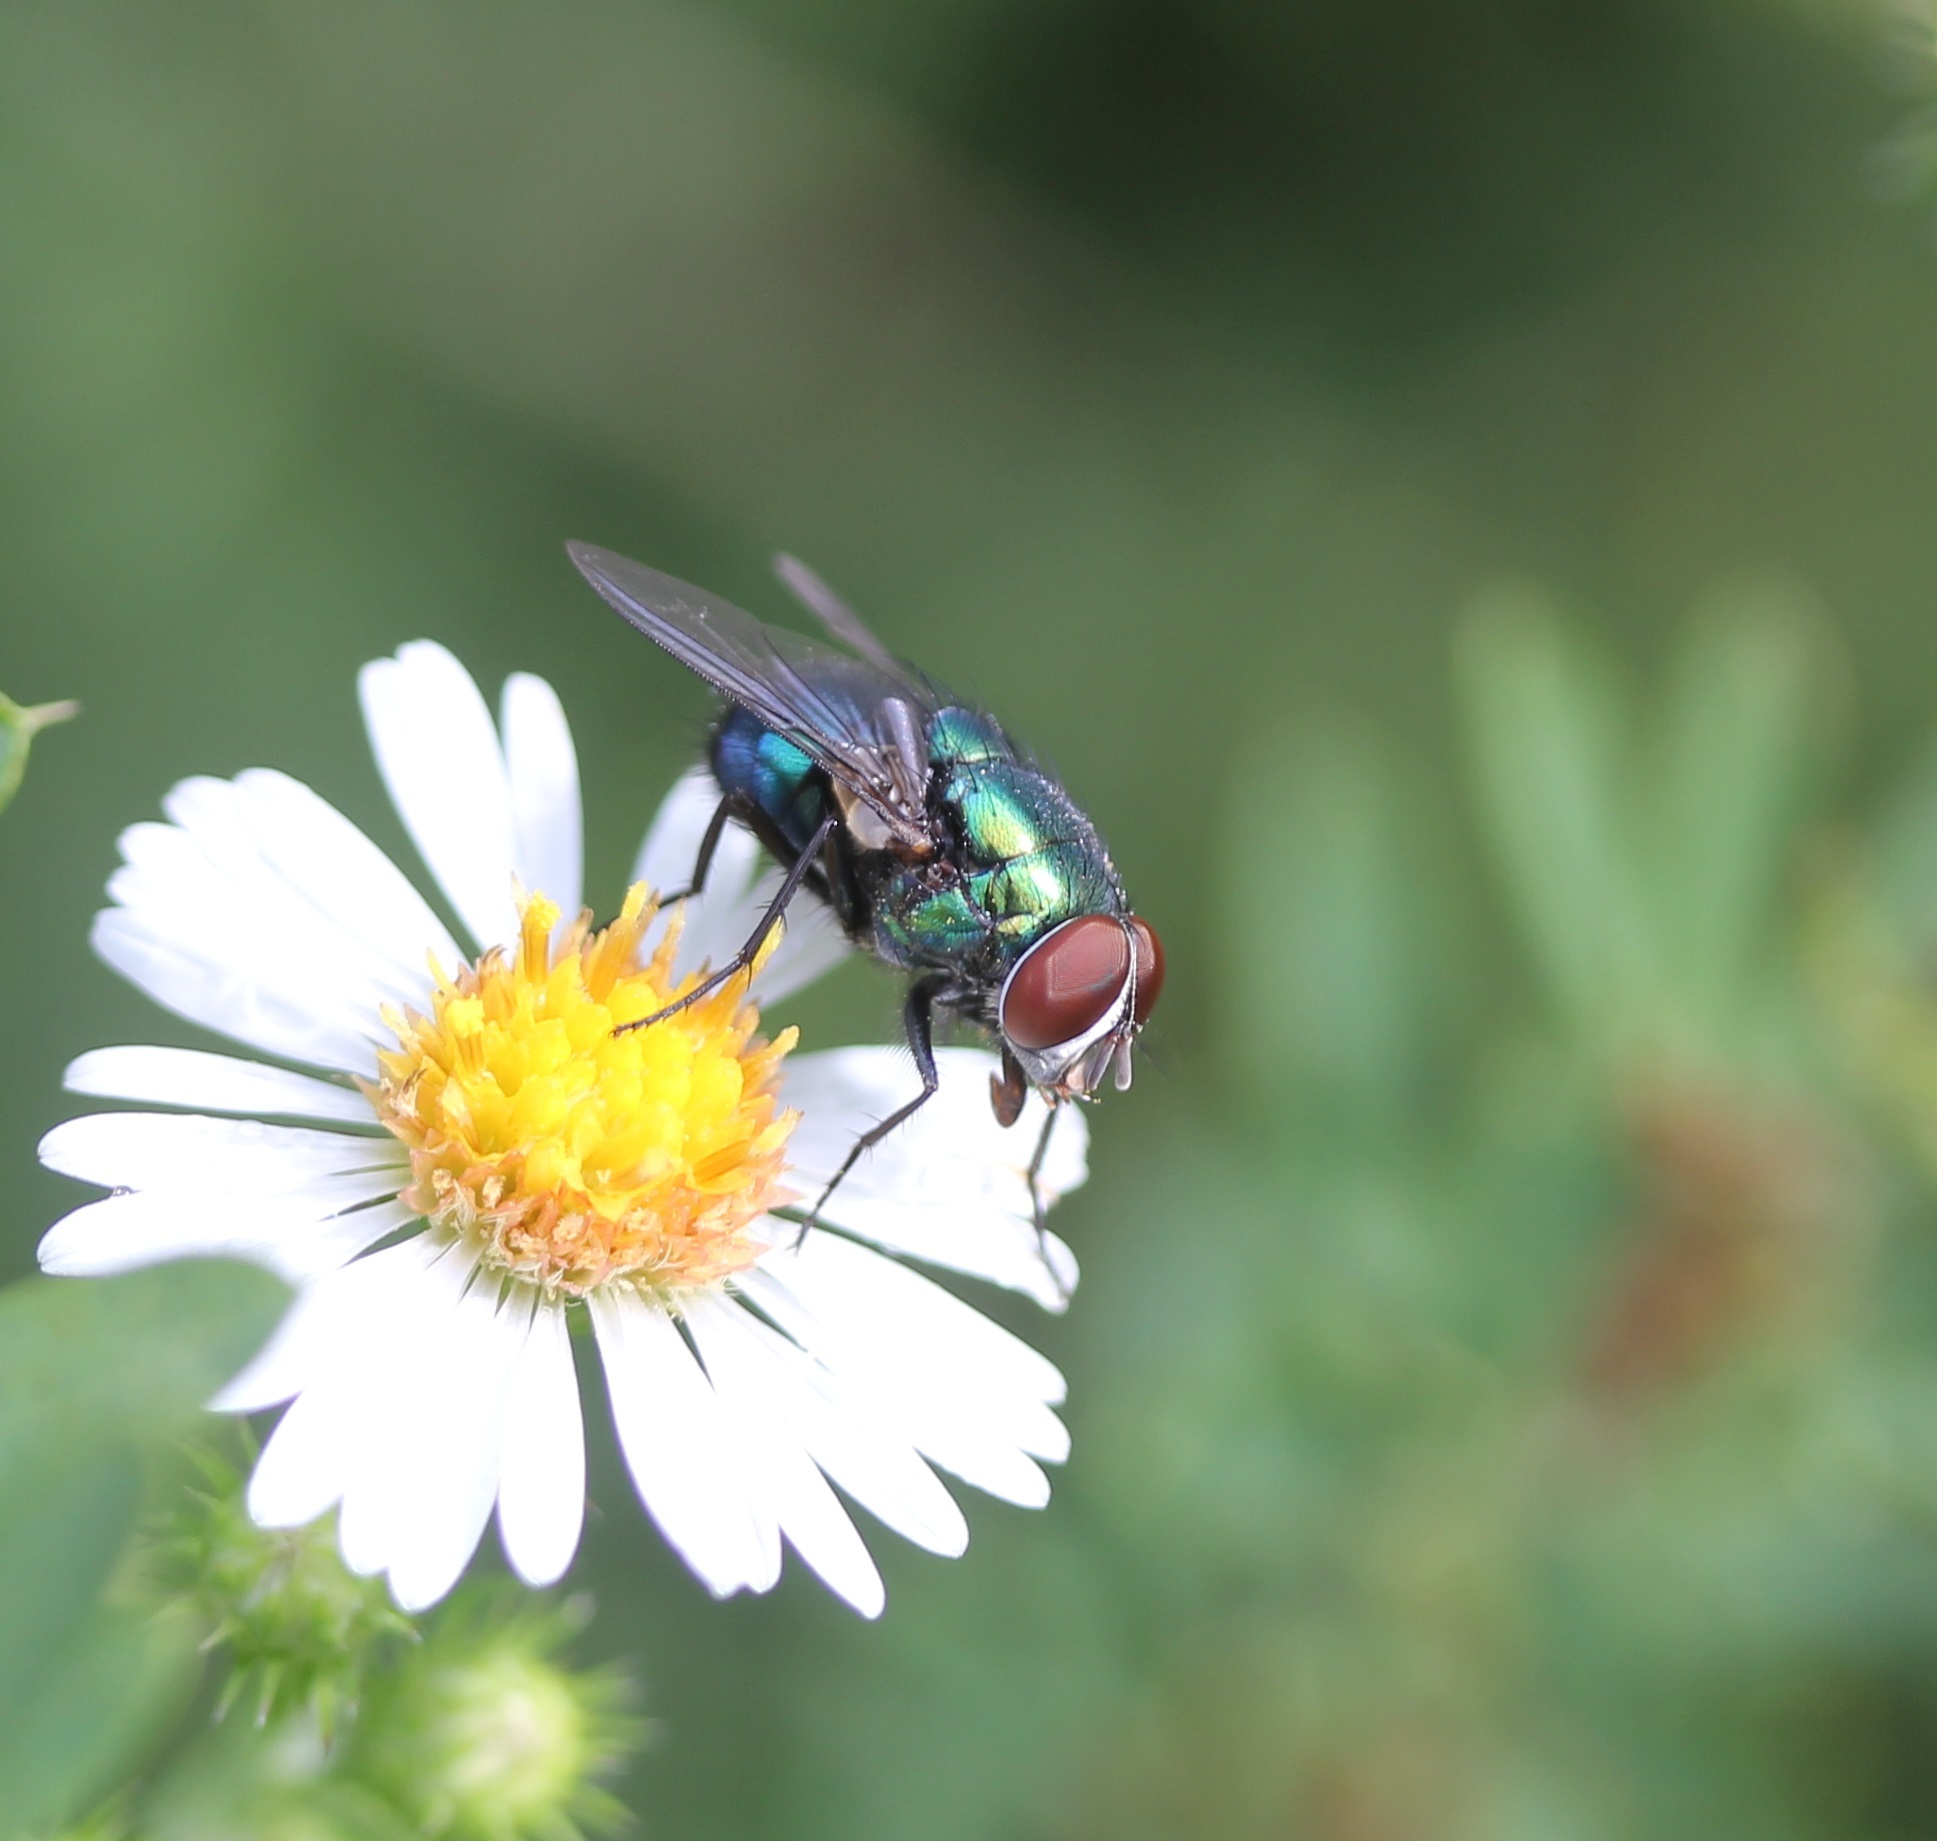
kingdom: Animalia
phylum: Arthropoda
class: Insecta
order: Diptera
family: Calliphoridae
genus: Lucilia
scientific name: Lucilia caeruleiviridis
